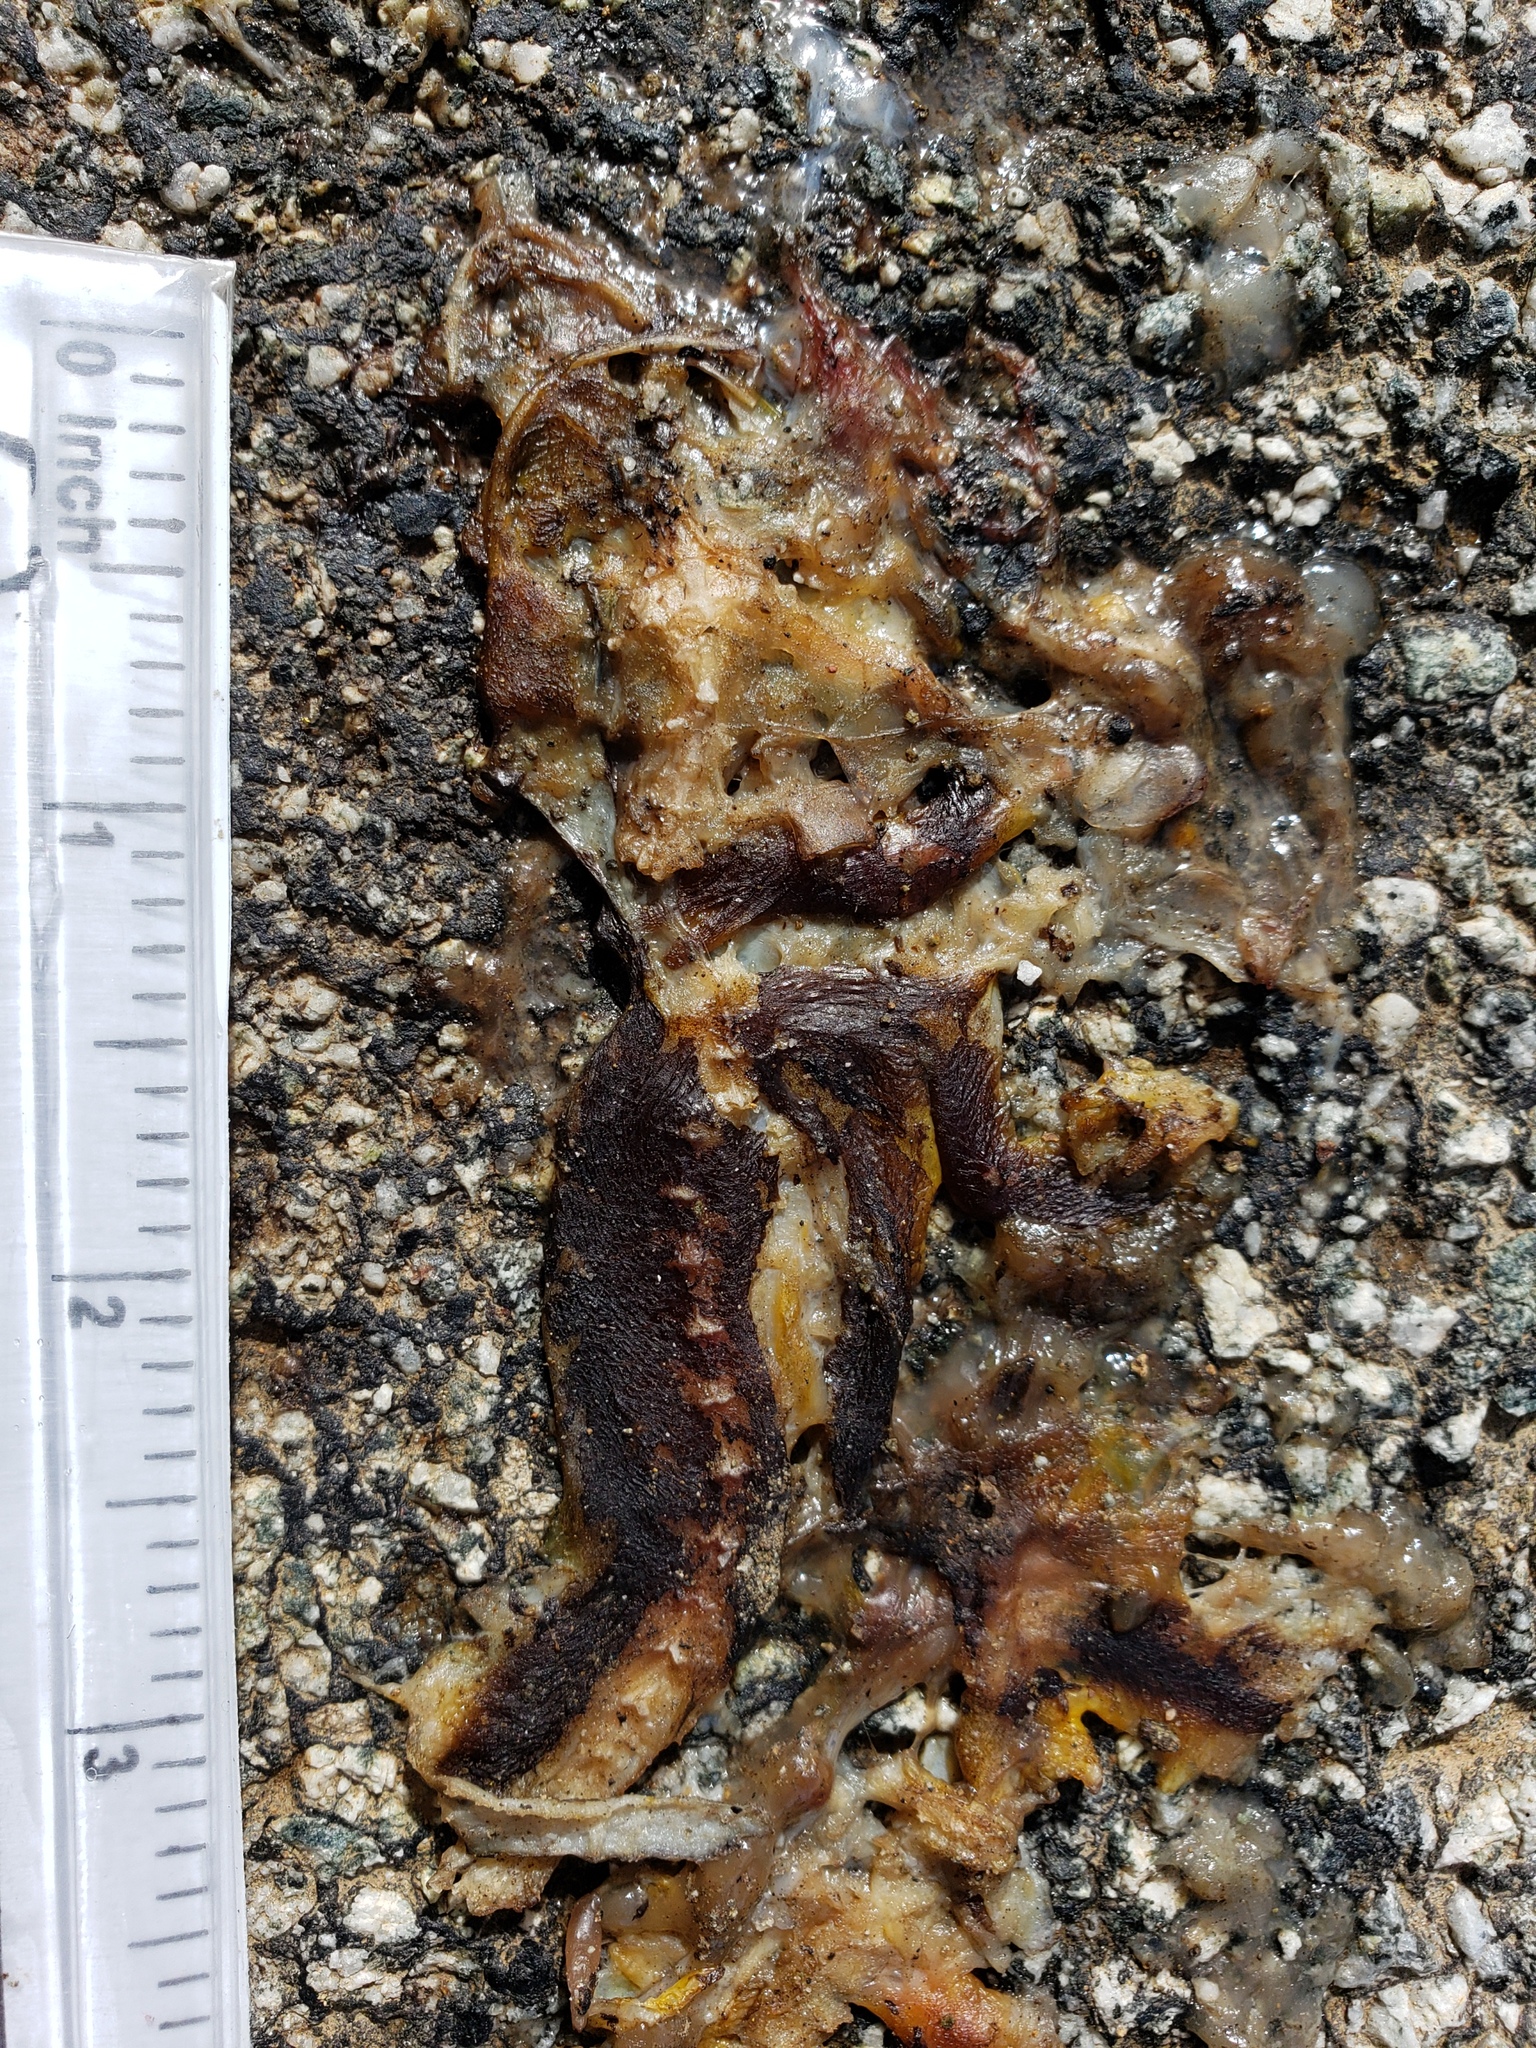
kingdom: Animalia
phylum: Chordata
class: Amphibia
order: Caudata
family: Salamandridae
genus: Taricha
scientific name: Taricha
